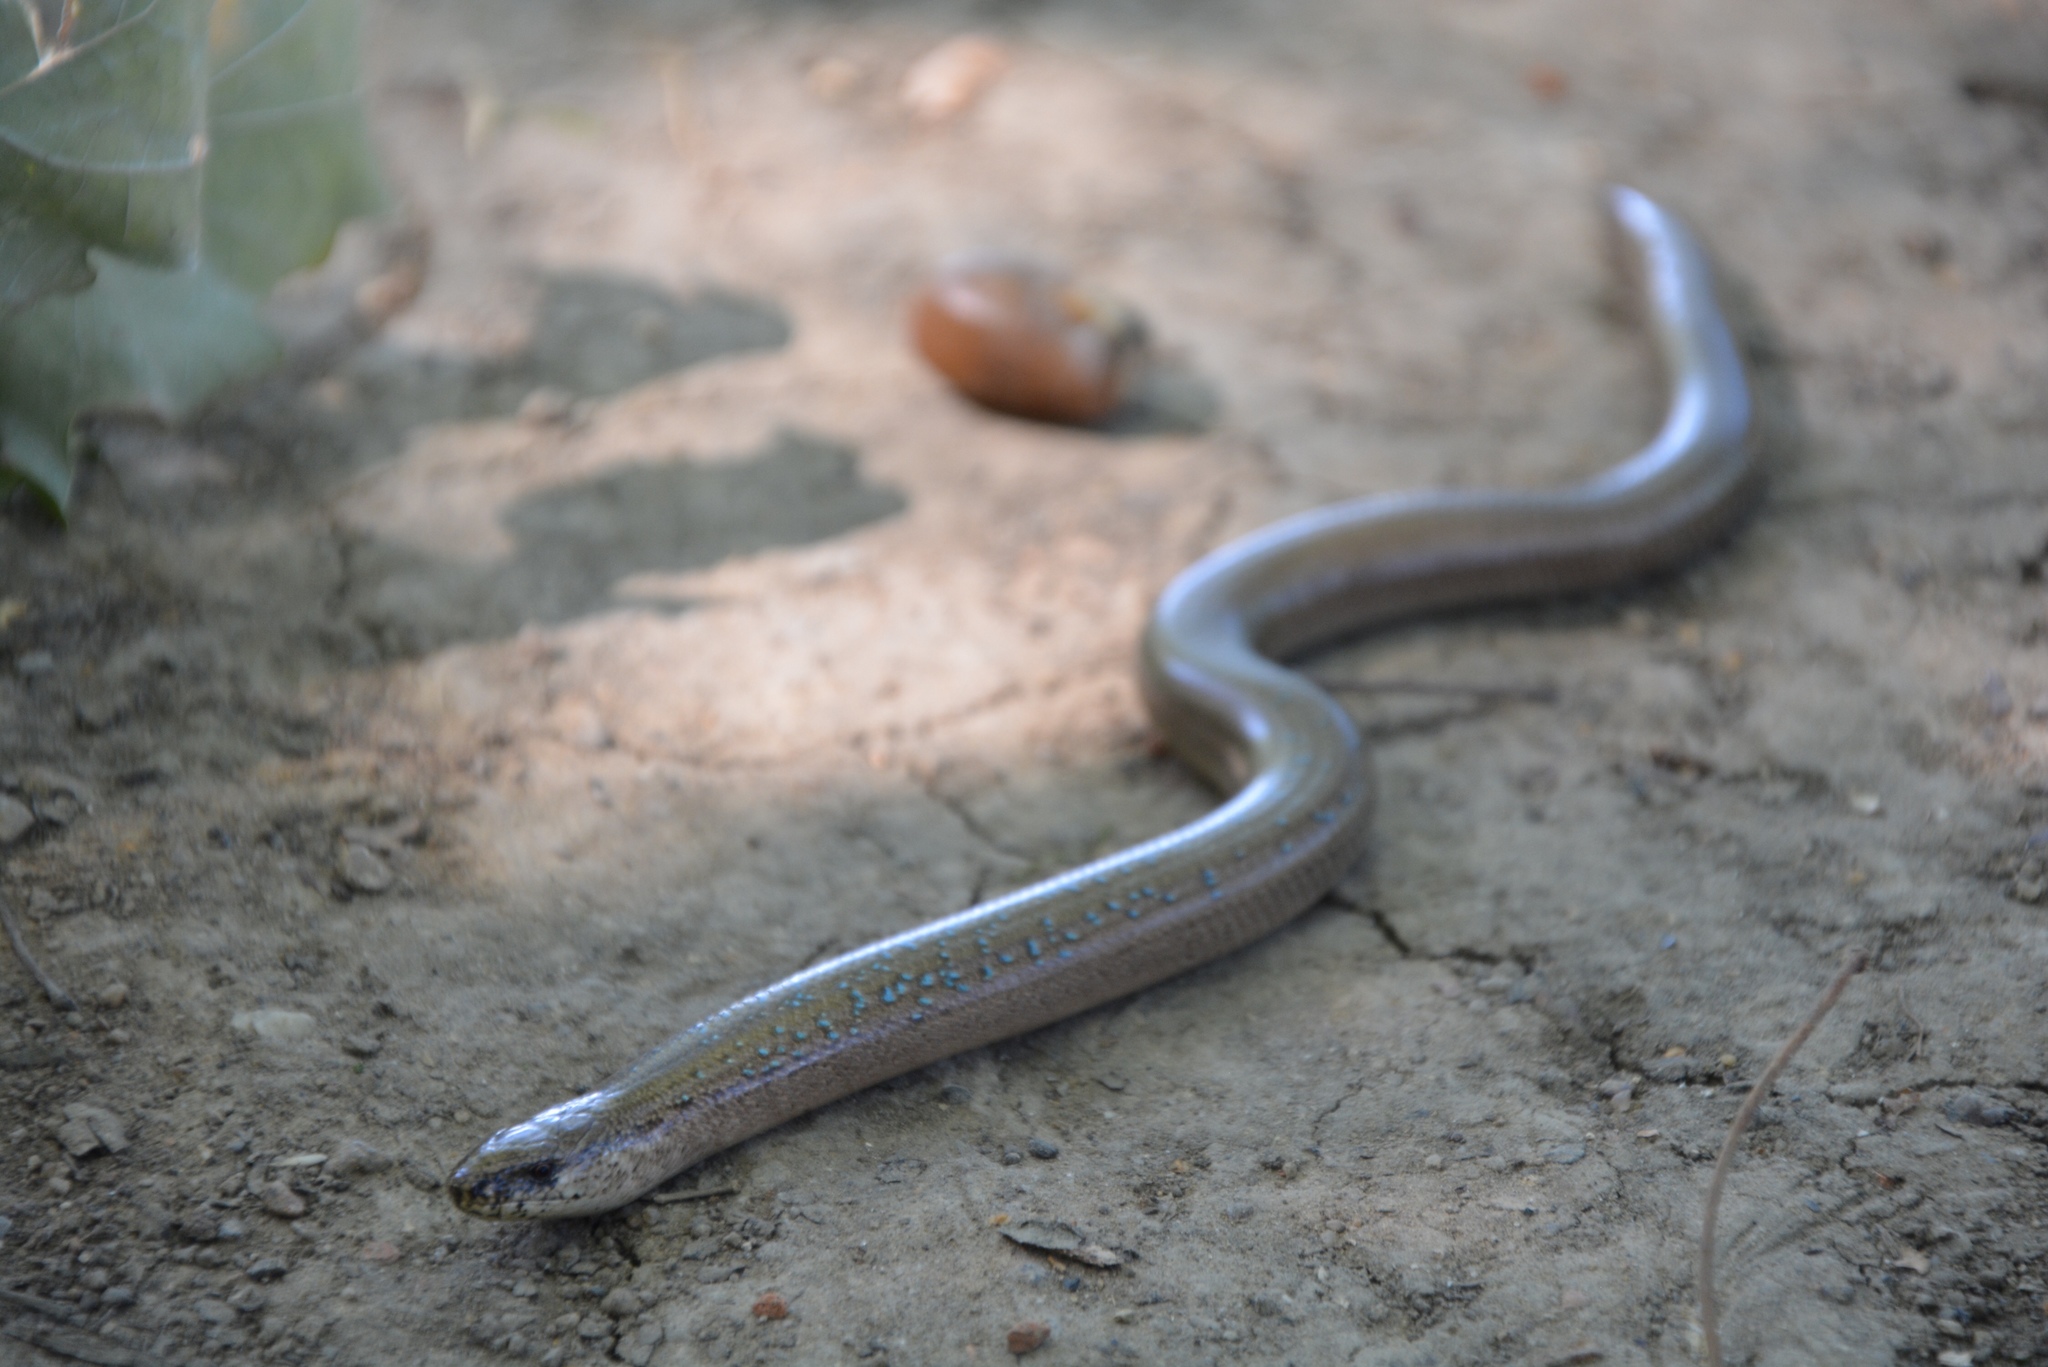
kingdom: Animalia
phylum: Chordata
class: Squamata
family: Anguidae
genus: Anguis
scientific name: Anguis fragilis
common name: Slow worm
